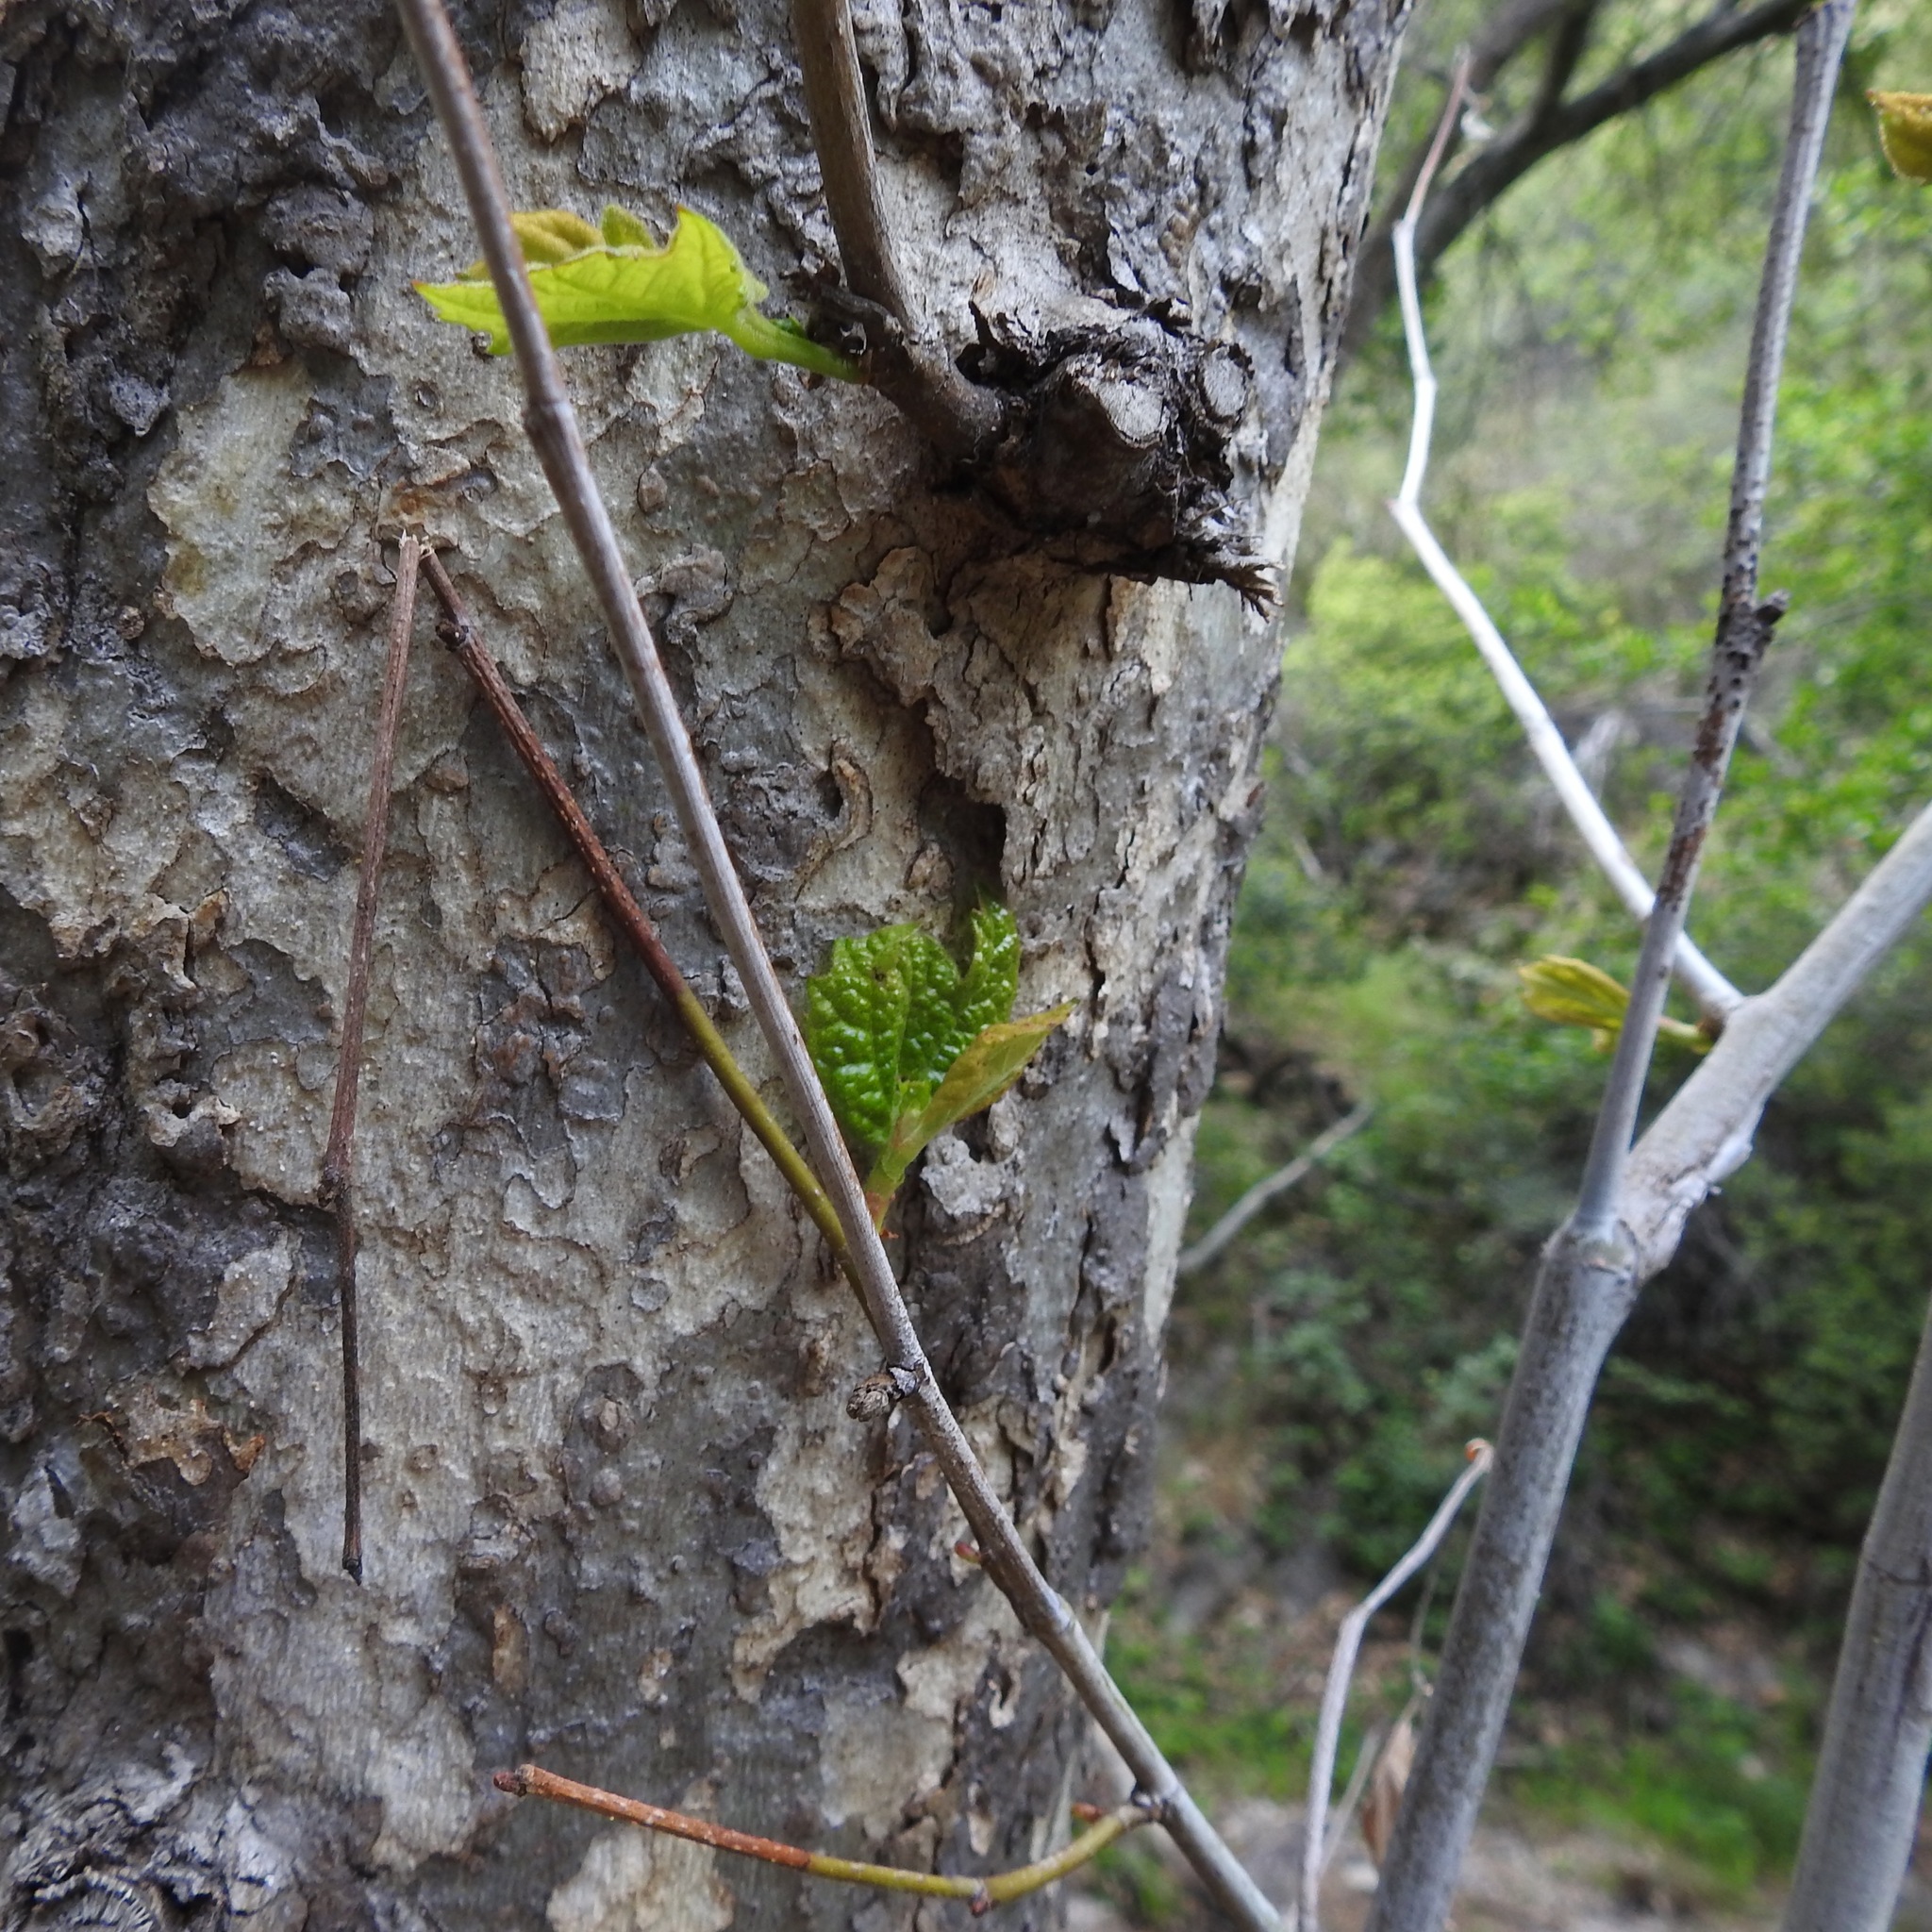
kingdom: Plantae
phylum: Tracheophyta
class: Magnoliopsida
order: Proteales
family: Platanaceae
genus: Platanus
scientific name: Platanus racemosa
